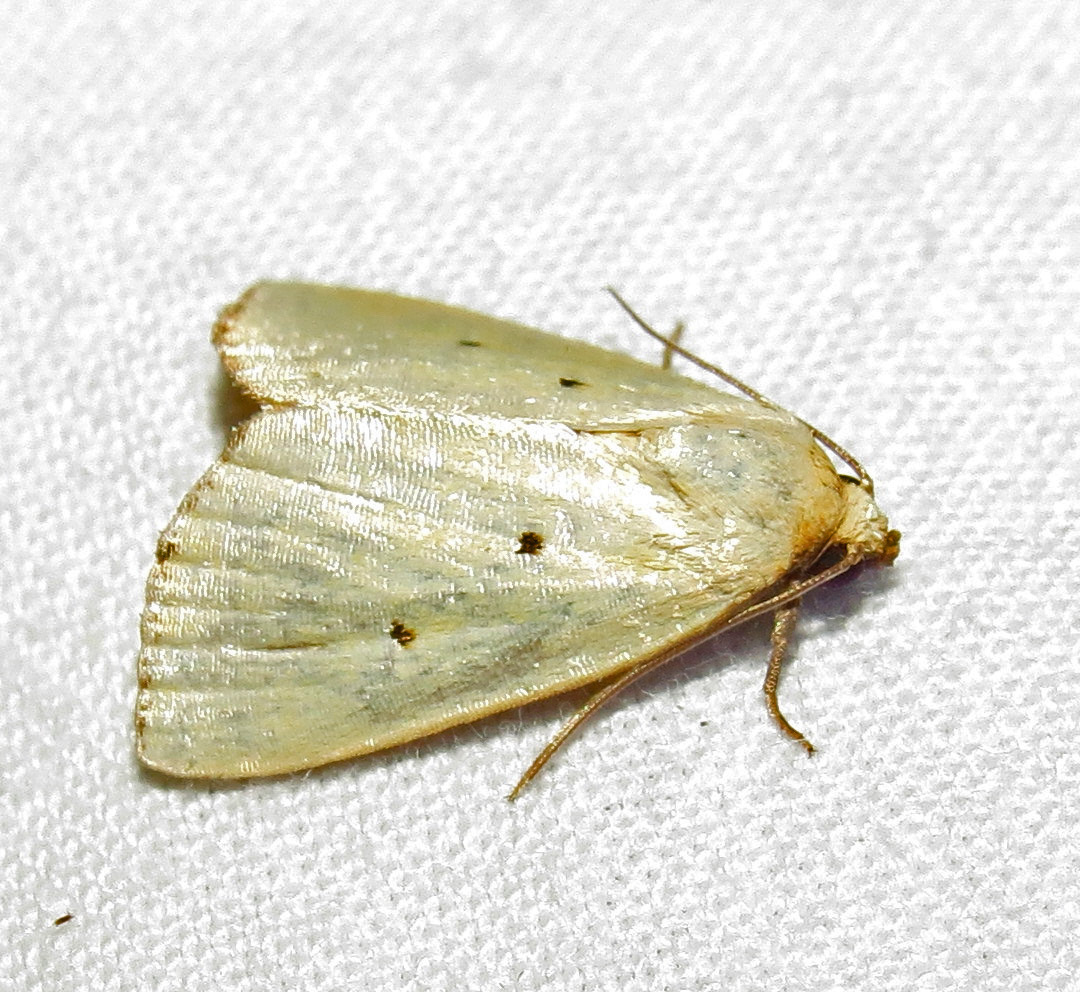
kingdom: Animalia
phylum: Arthropoda
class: Insecta
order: Lepidoptera
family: Noctuidae
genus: Marimatha
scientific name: Marimatha nigrofimbria
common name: Black-bordered lemon moth
